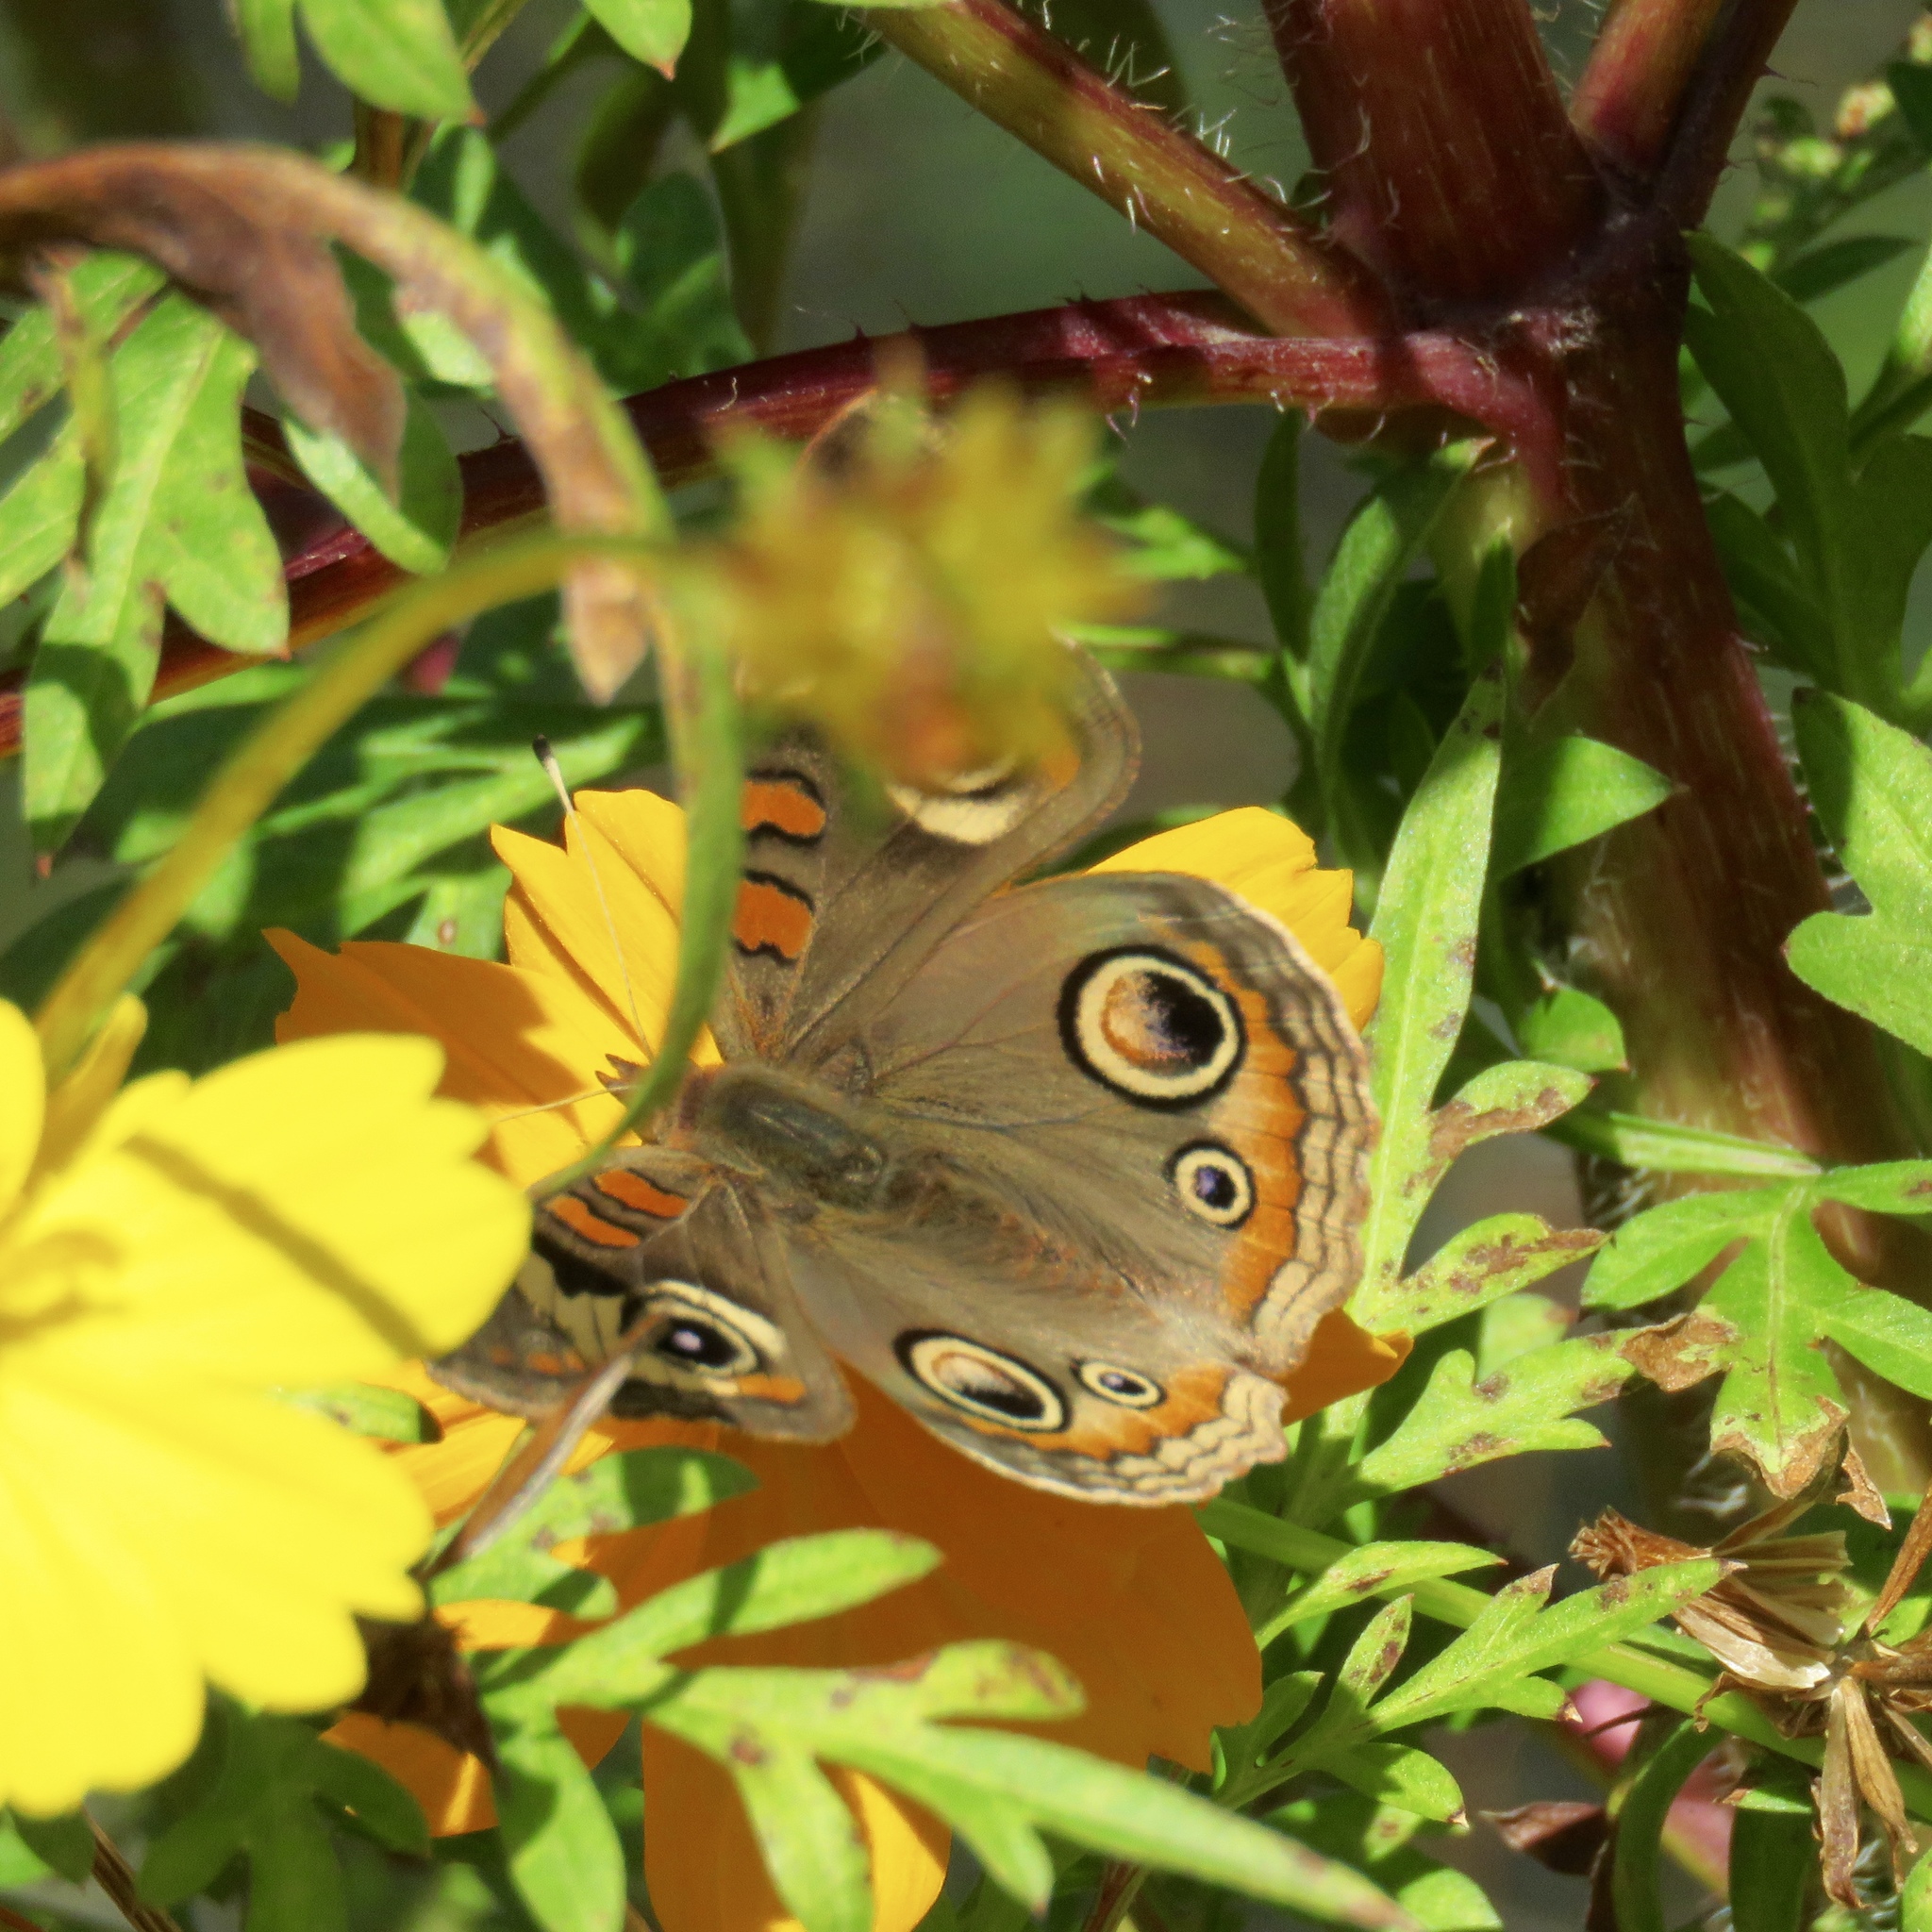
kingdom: Animalia
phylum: Arthropoda
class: Insecta
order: Lepidoptera
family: Nymphalidae
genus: Junonia
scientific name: Junonia coenia
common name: Common buckeye
